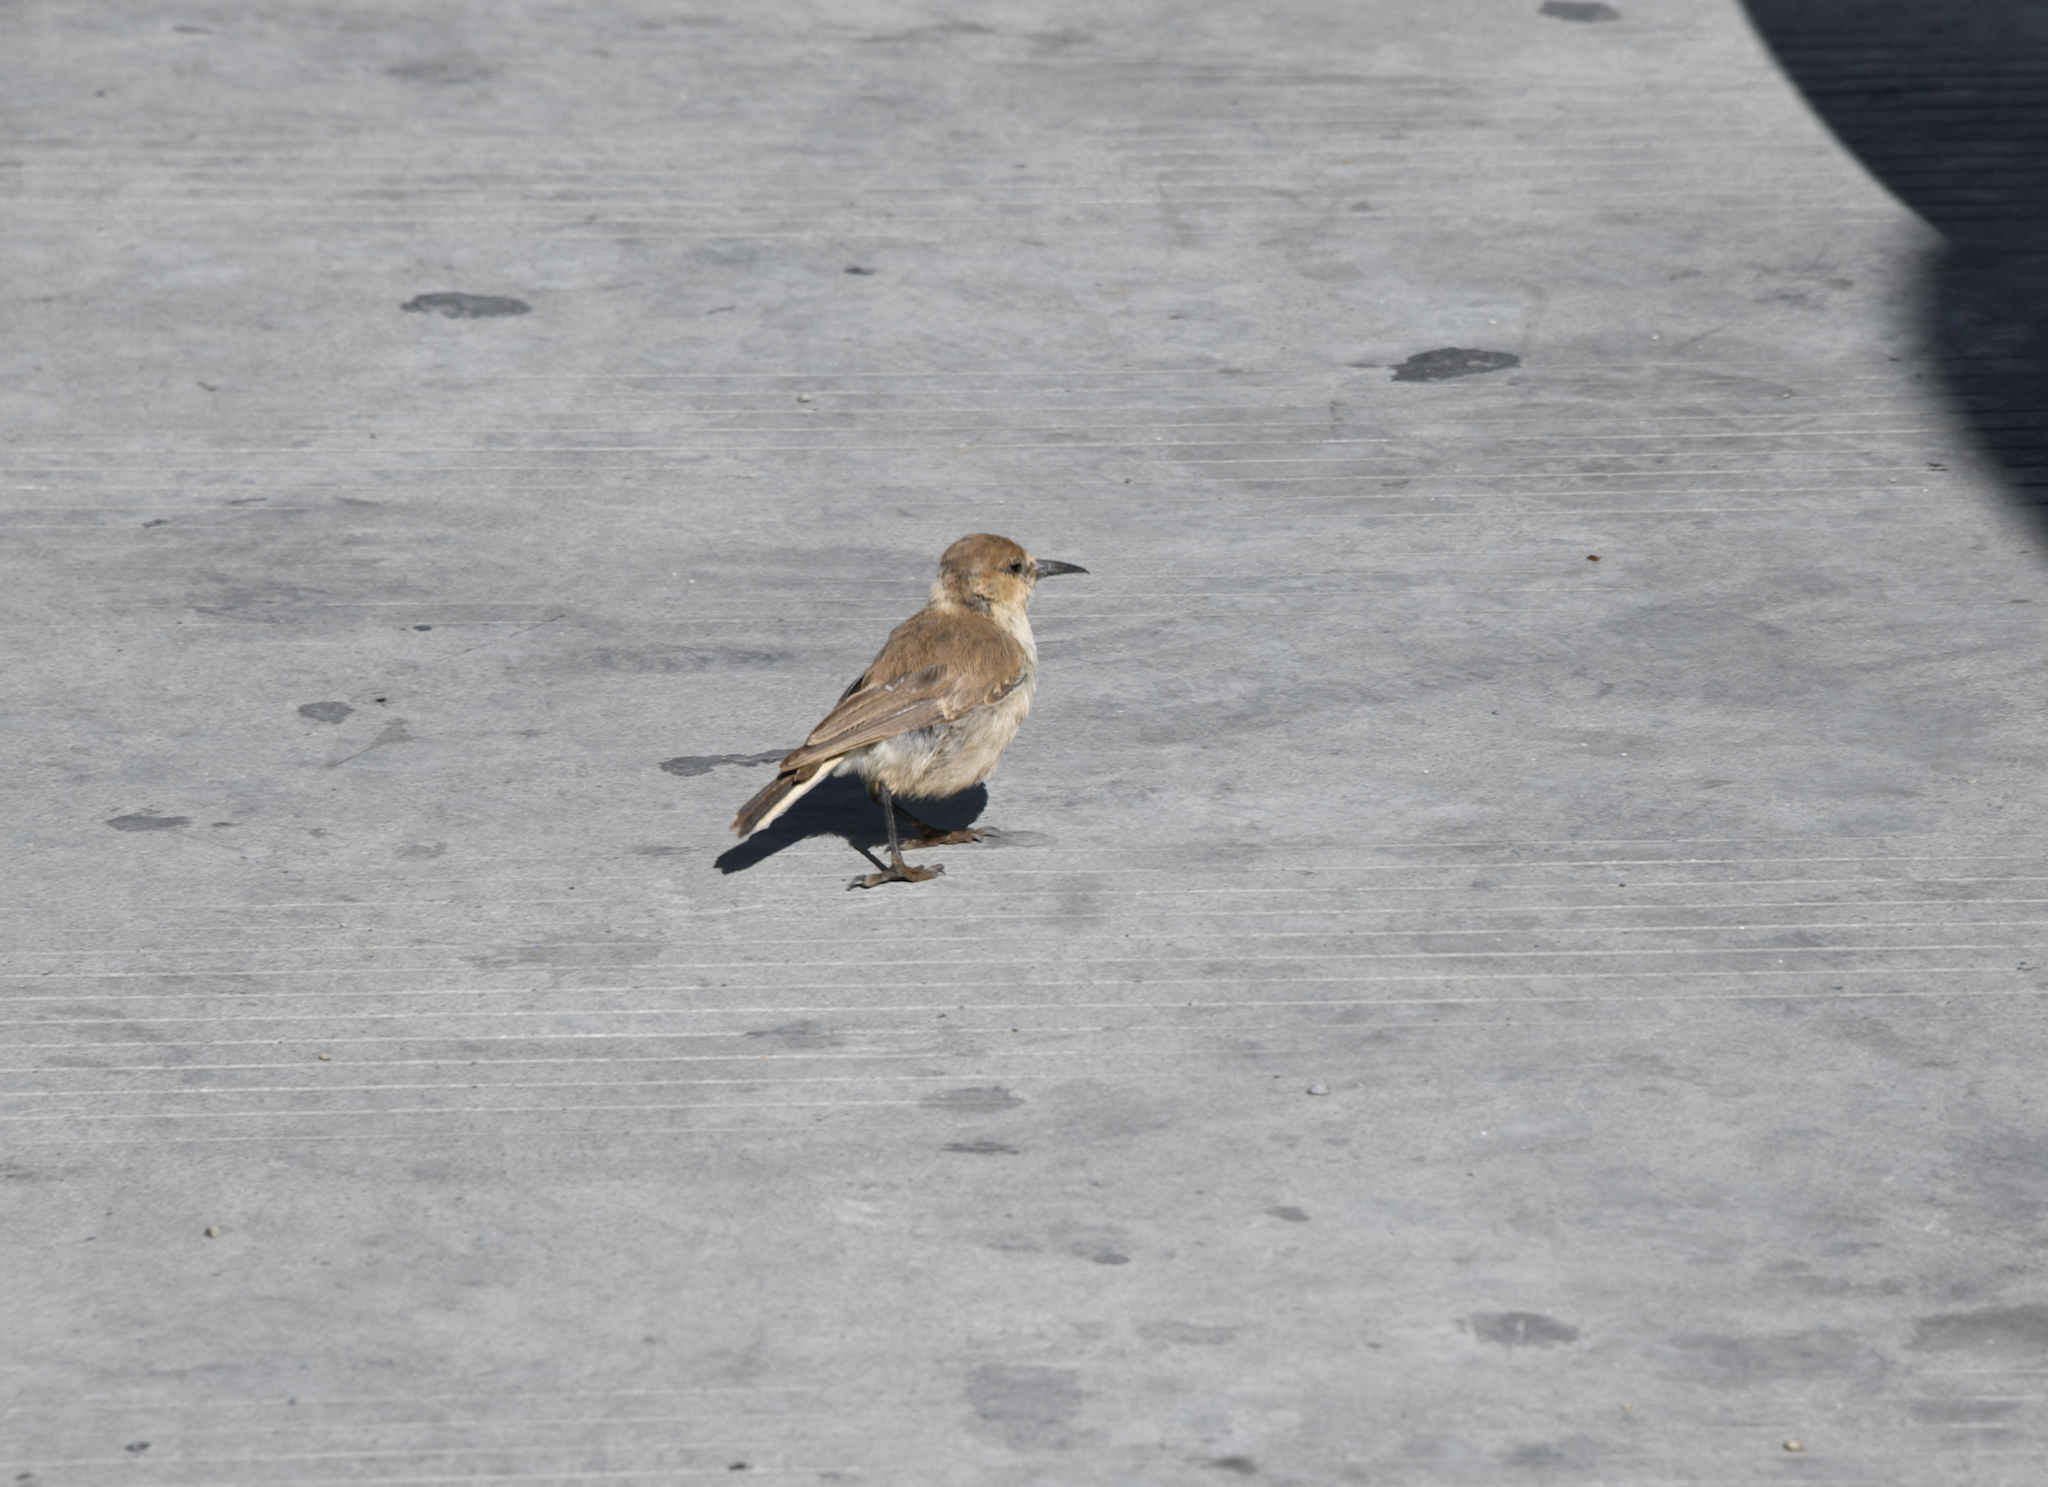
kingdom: Animalia
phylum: Chordata
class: Aves
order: Passeriformes
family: Paridae
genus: Pseudopodoces
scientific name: Pseudopodoces humilis
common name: Ground tit
